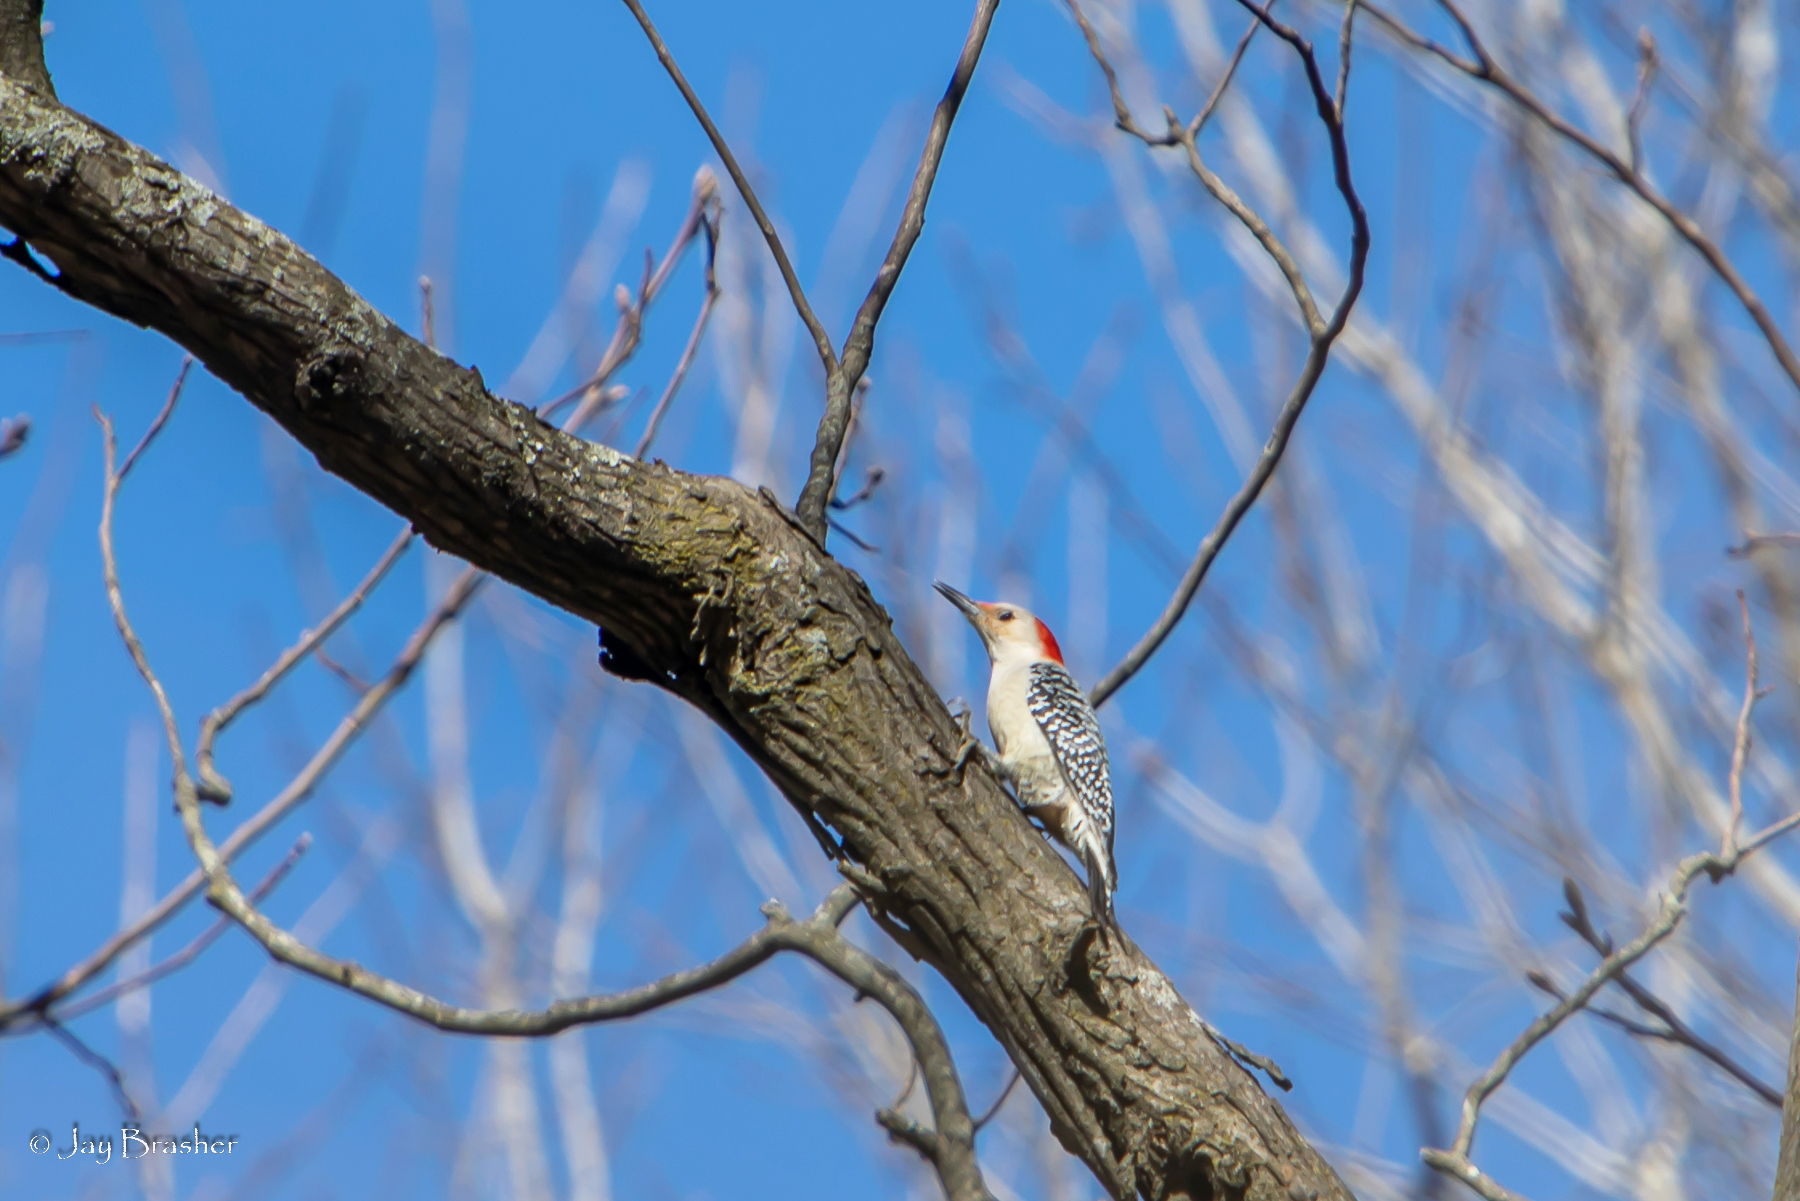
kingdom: Animalia
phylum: Chordata
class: Aves
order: Piciformes
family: Picidae
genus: Melanerpes
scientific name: Melanerpes carolinus
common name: Red-bellied woodpecker
